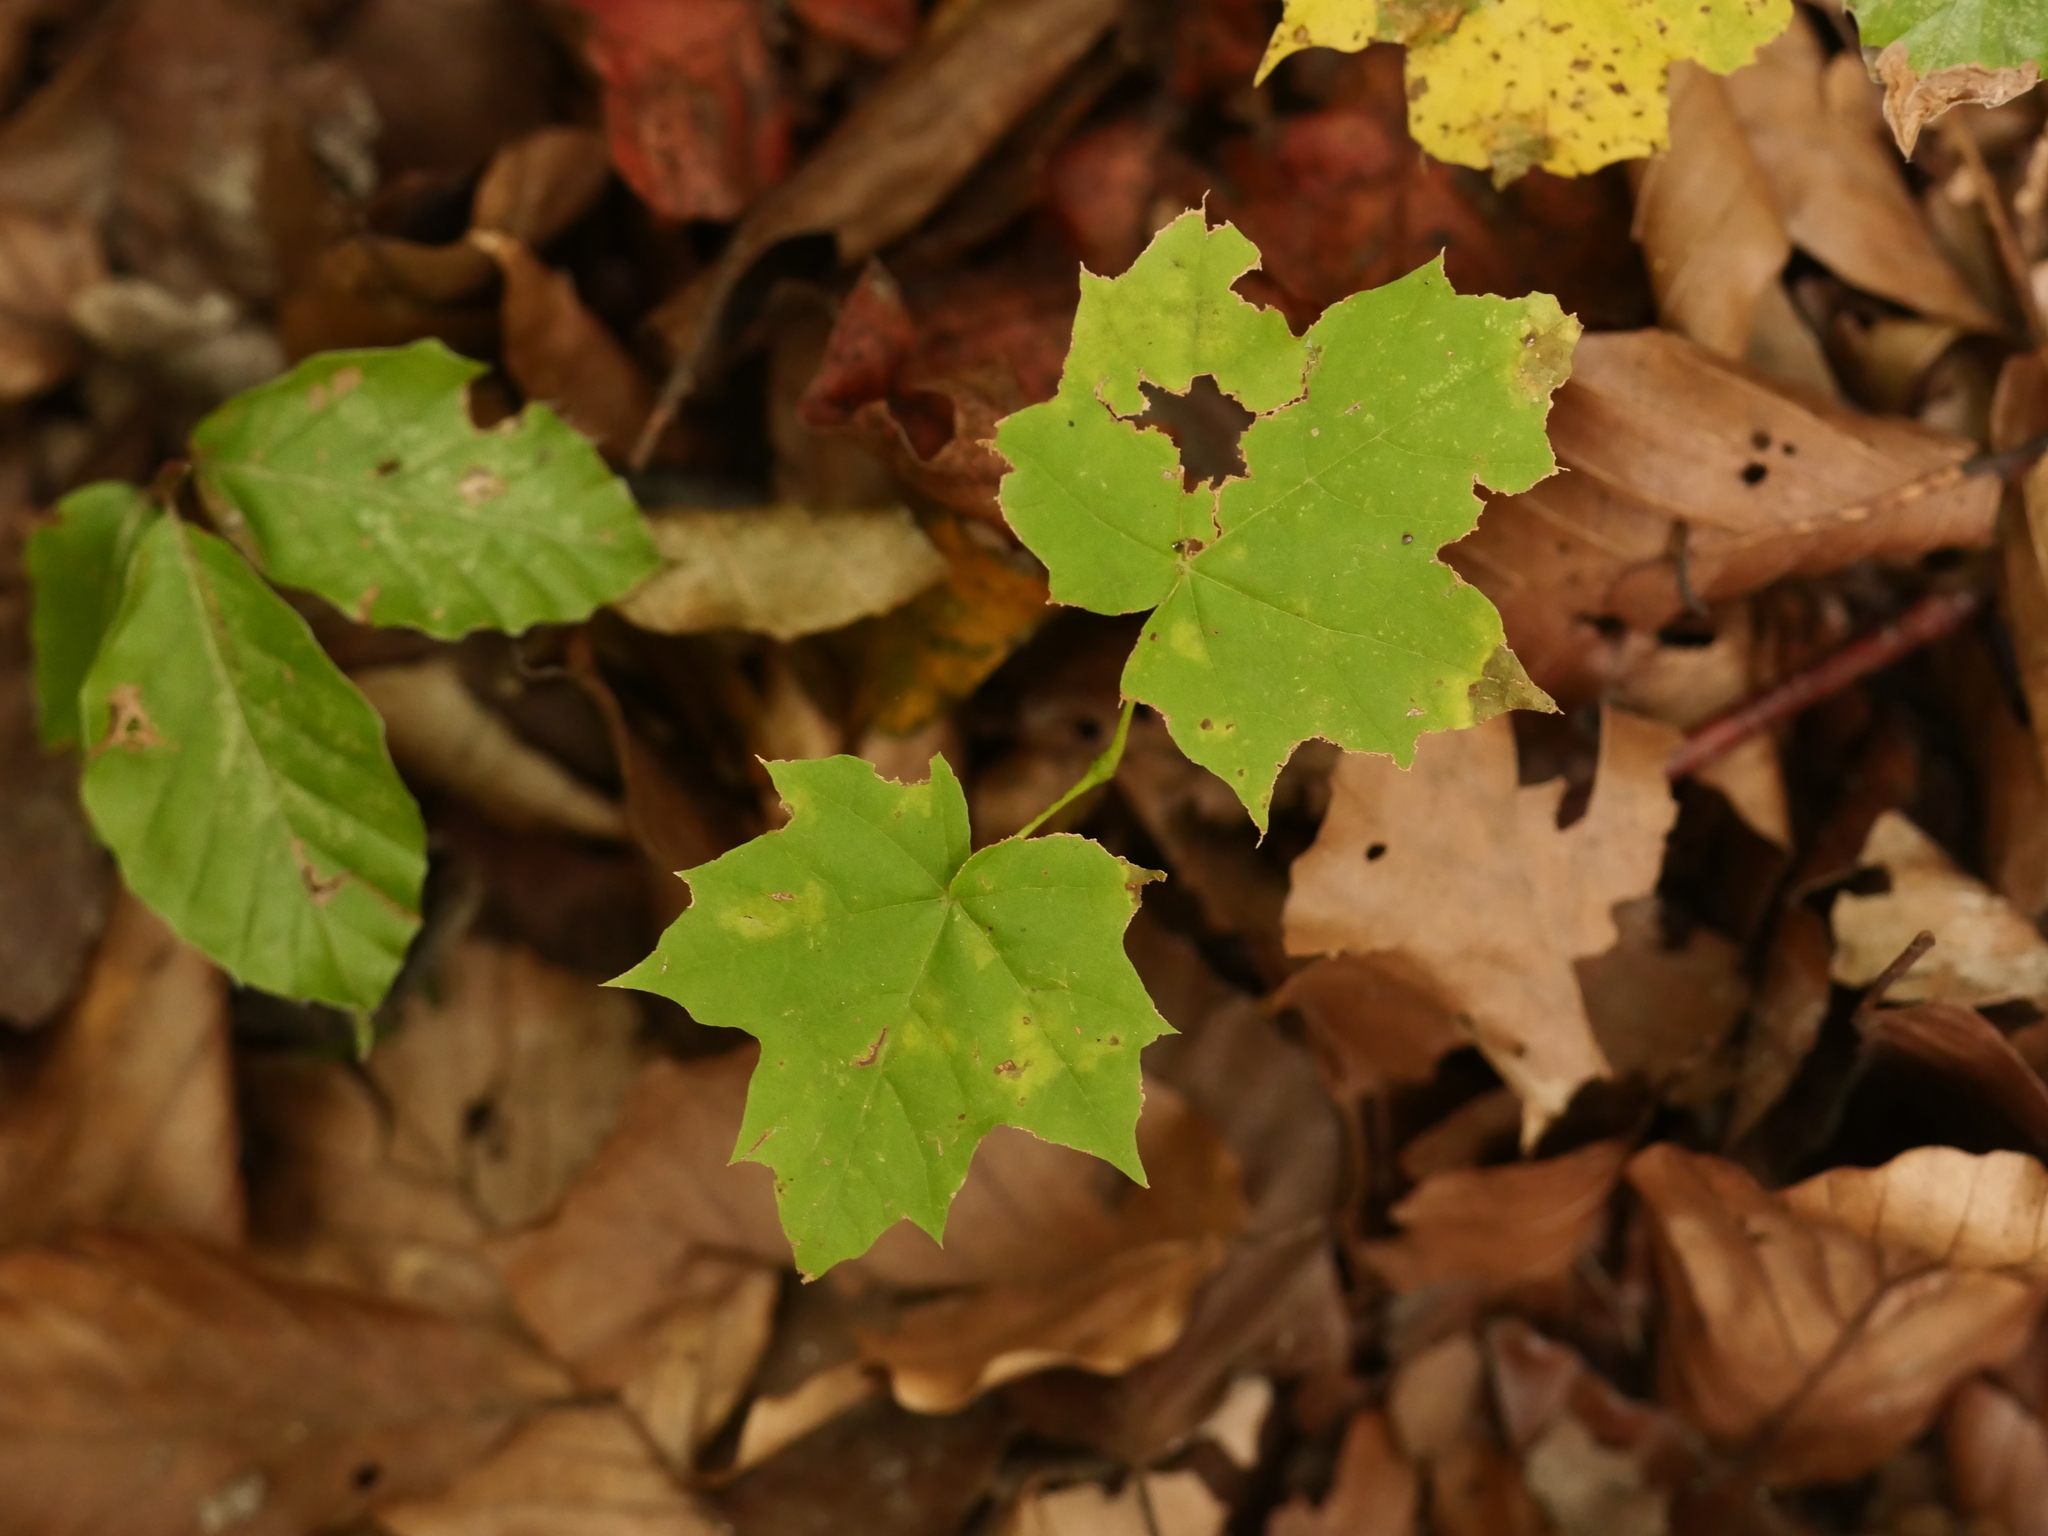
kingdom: Plantae
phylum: Tracheophyta
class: Magnoliopsida
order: Sapindales
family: Sapindaceae
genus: Acer
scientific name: Acer platanoides
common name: Norway maple
